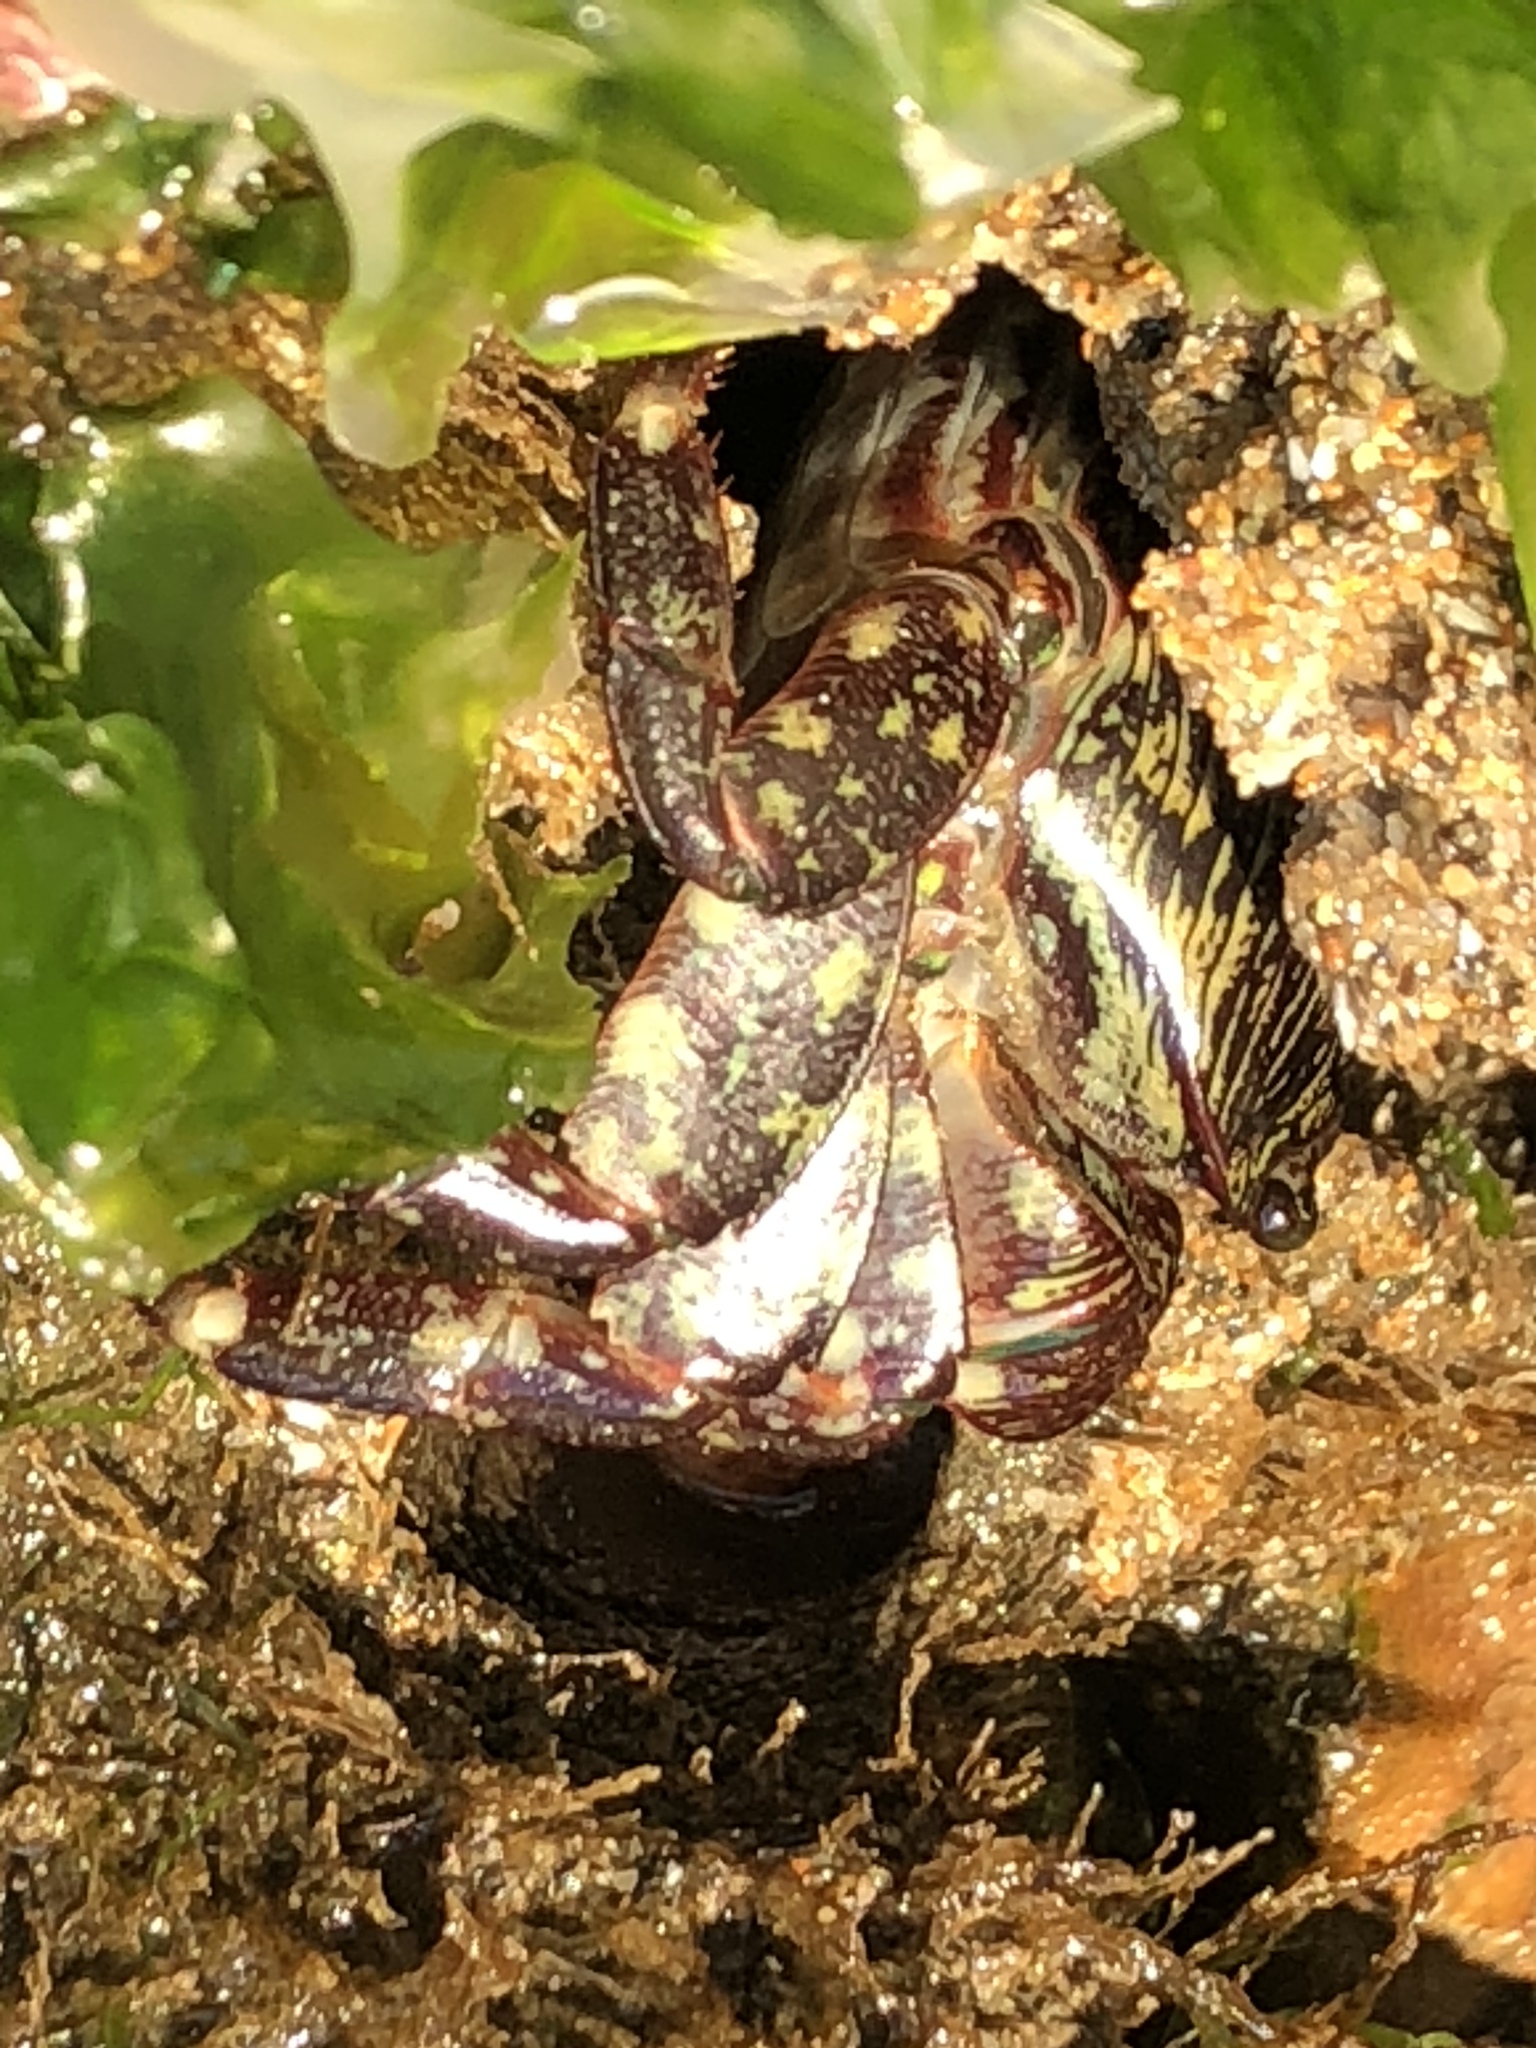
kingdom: Animalia
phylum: Arthropoda
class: Malacostraca
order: Decapoda
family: Grapsidae
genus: Pachygrapsus
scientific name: Pachygrapsus crassipes
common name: Striped shore crab
